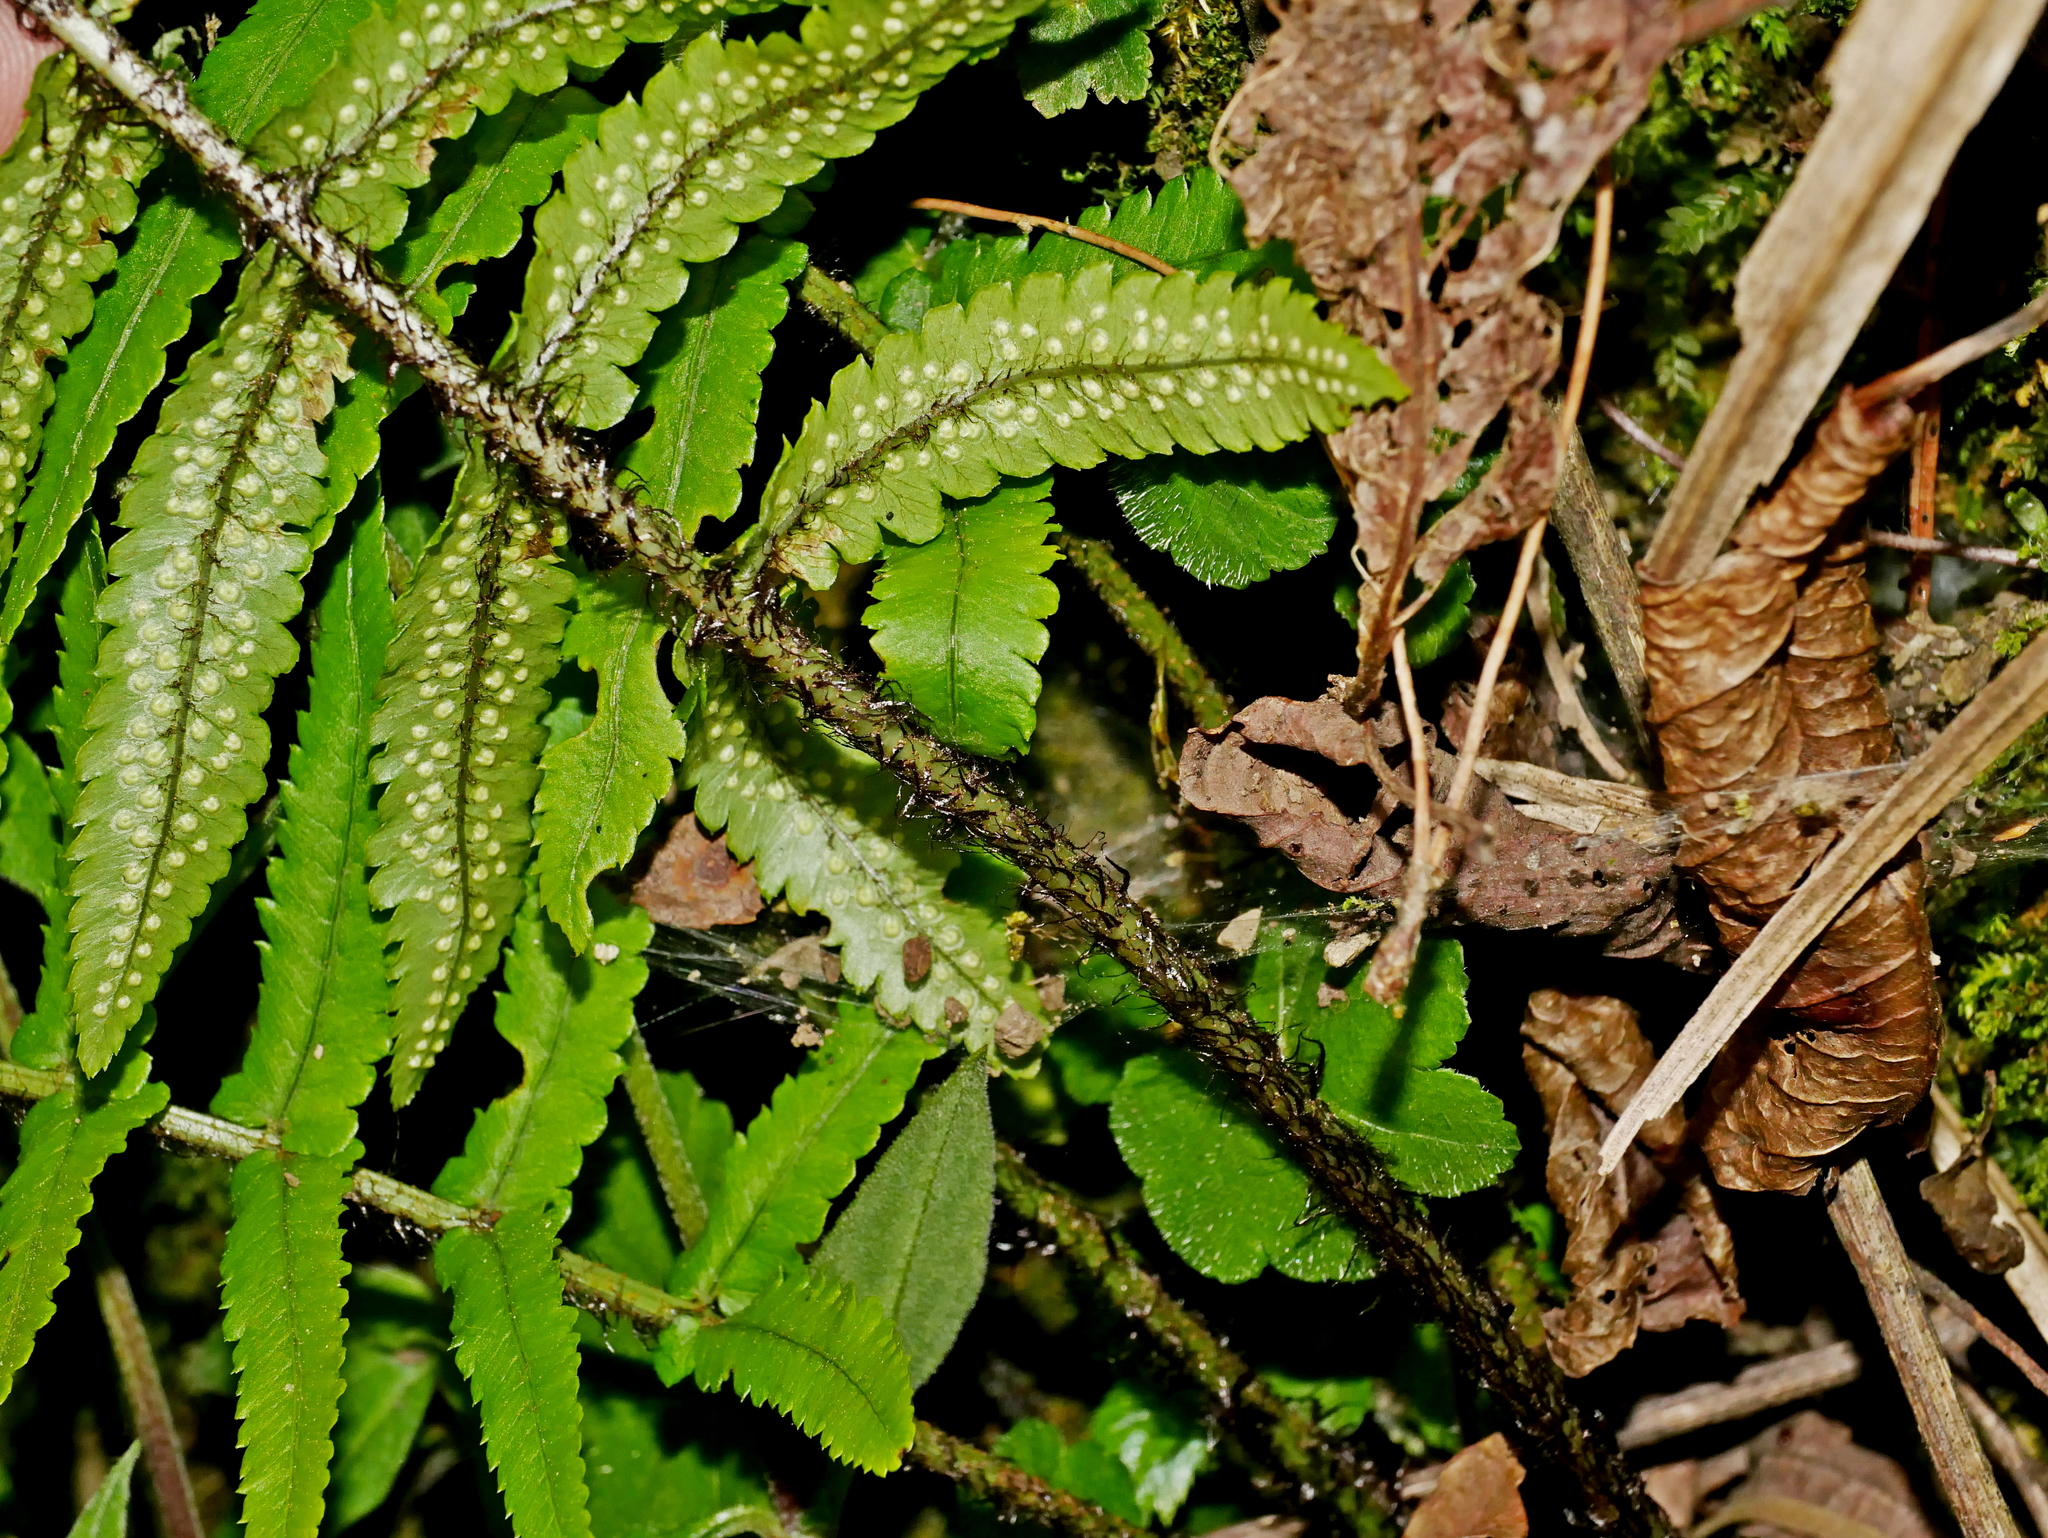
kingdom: Plantae
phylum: Tracheophyta
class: Polypodiopsida
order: Polypodiales
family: Dryopteridaceae
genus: Dryopteris
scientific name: Dryopteris cycadina
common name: Shaggy wood fern
